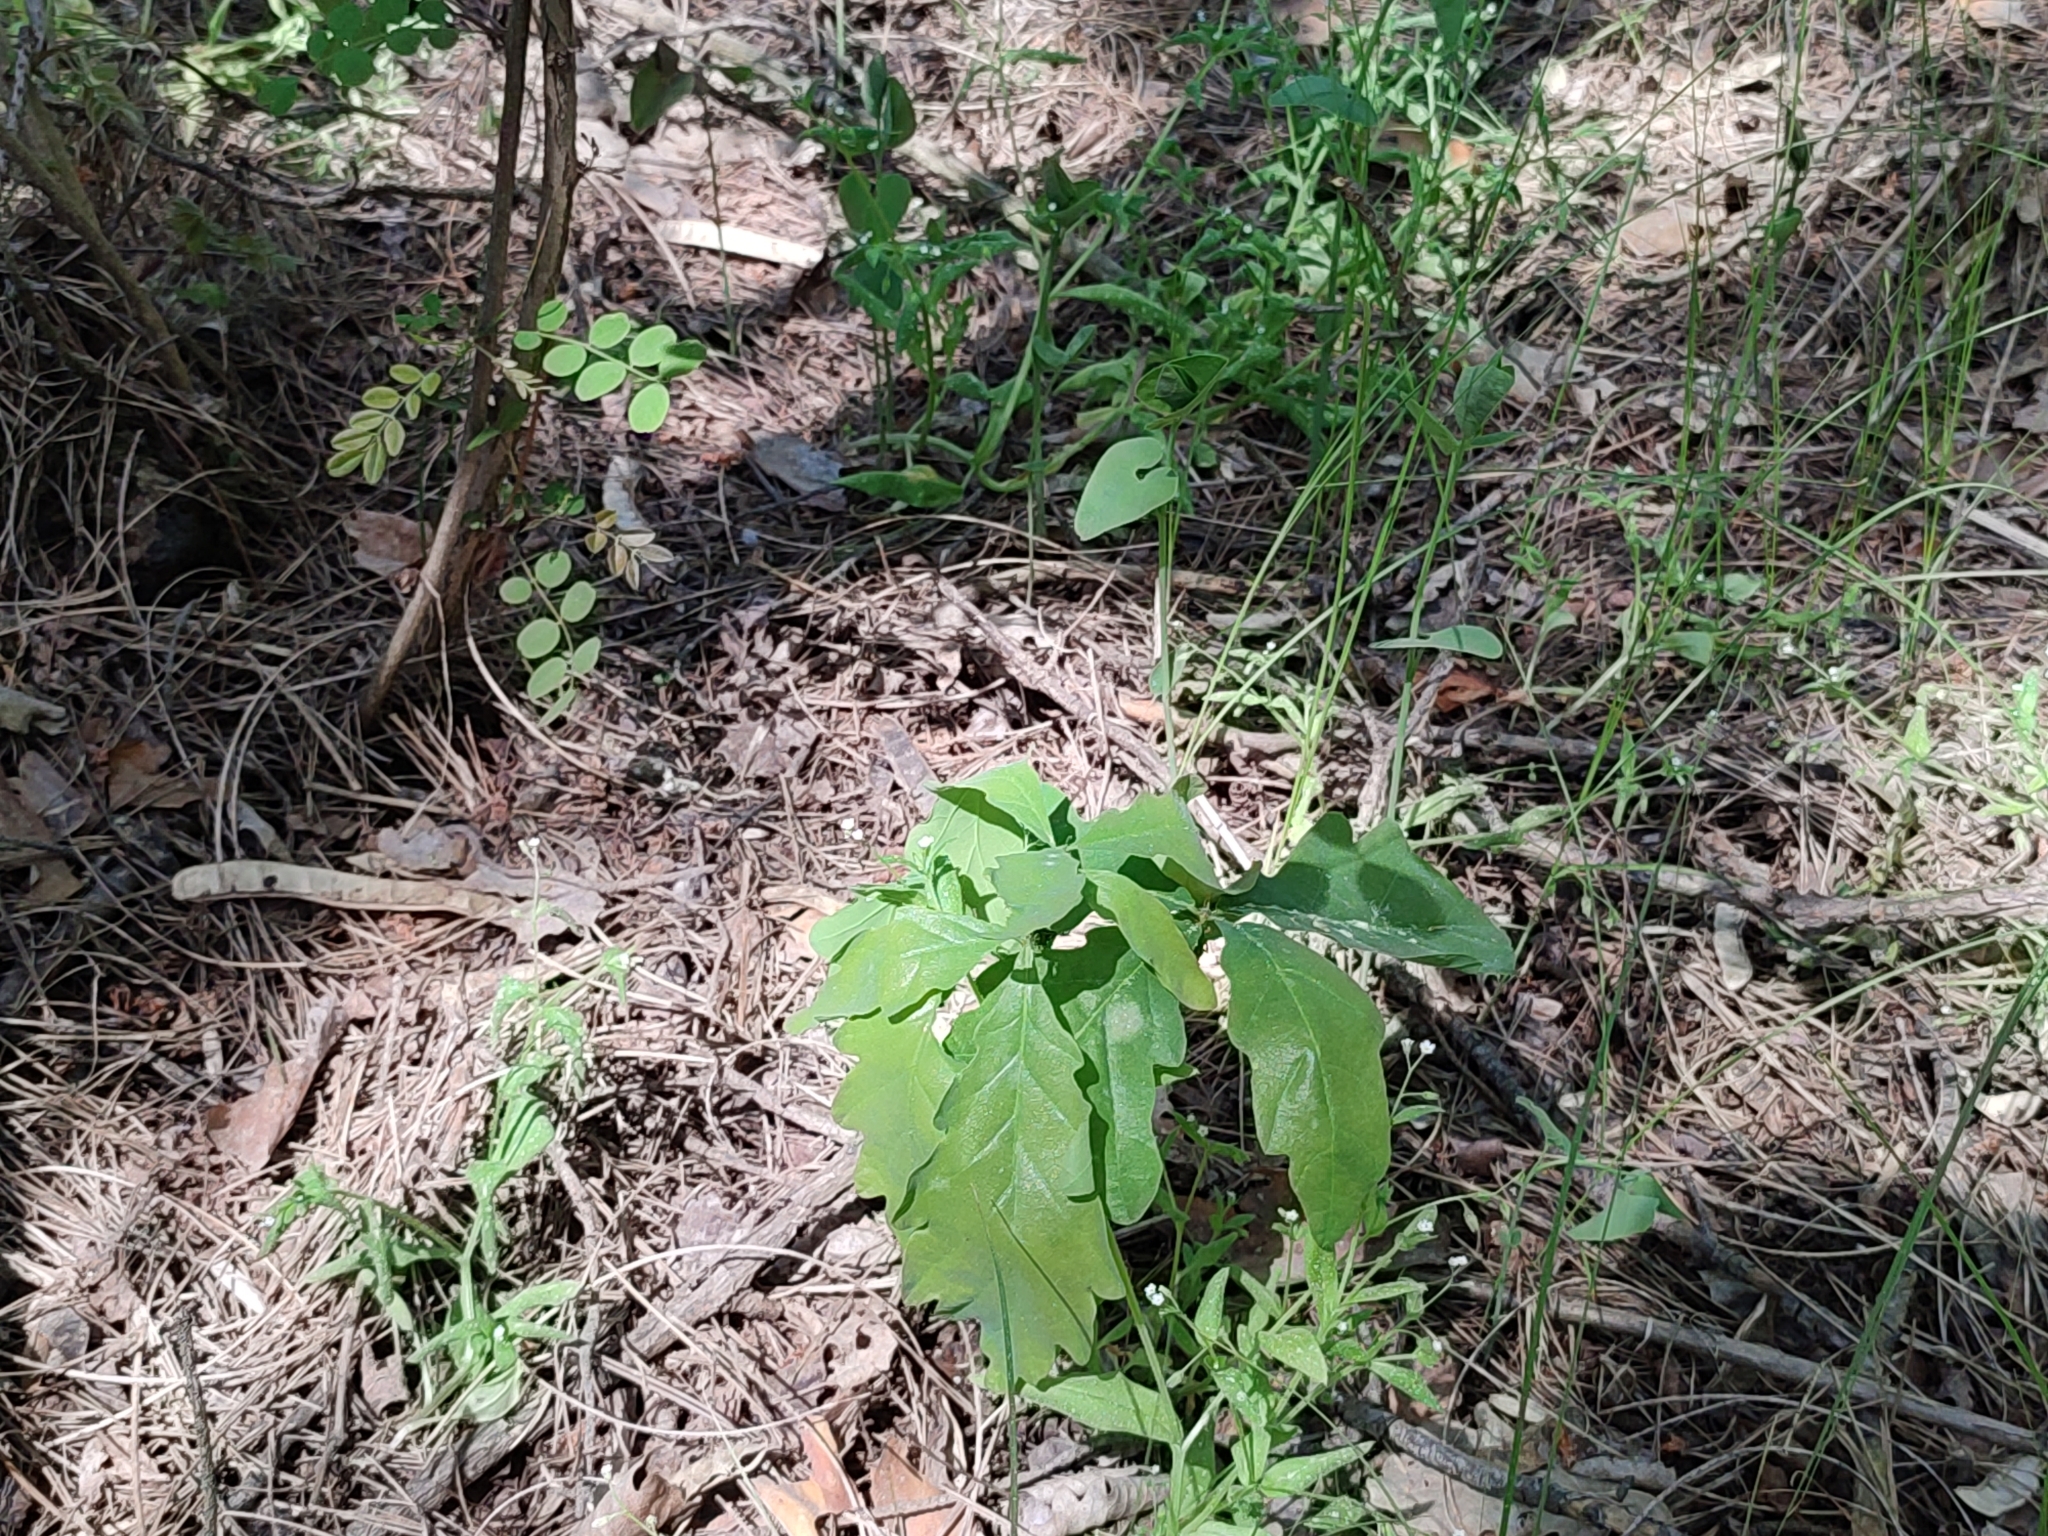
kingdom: Plantae
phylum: Tracheophyta
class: Magnoliopsida
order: Fagales
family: Fagaceae
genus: Quercus
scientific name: Quercus robur
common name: Pedunculate oak
